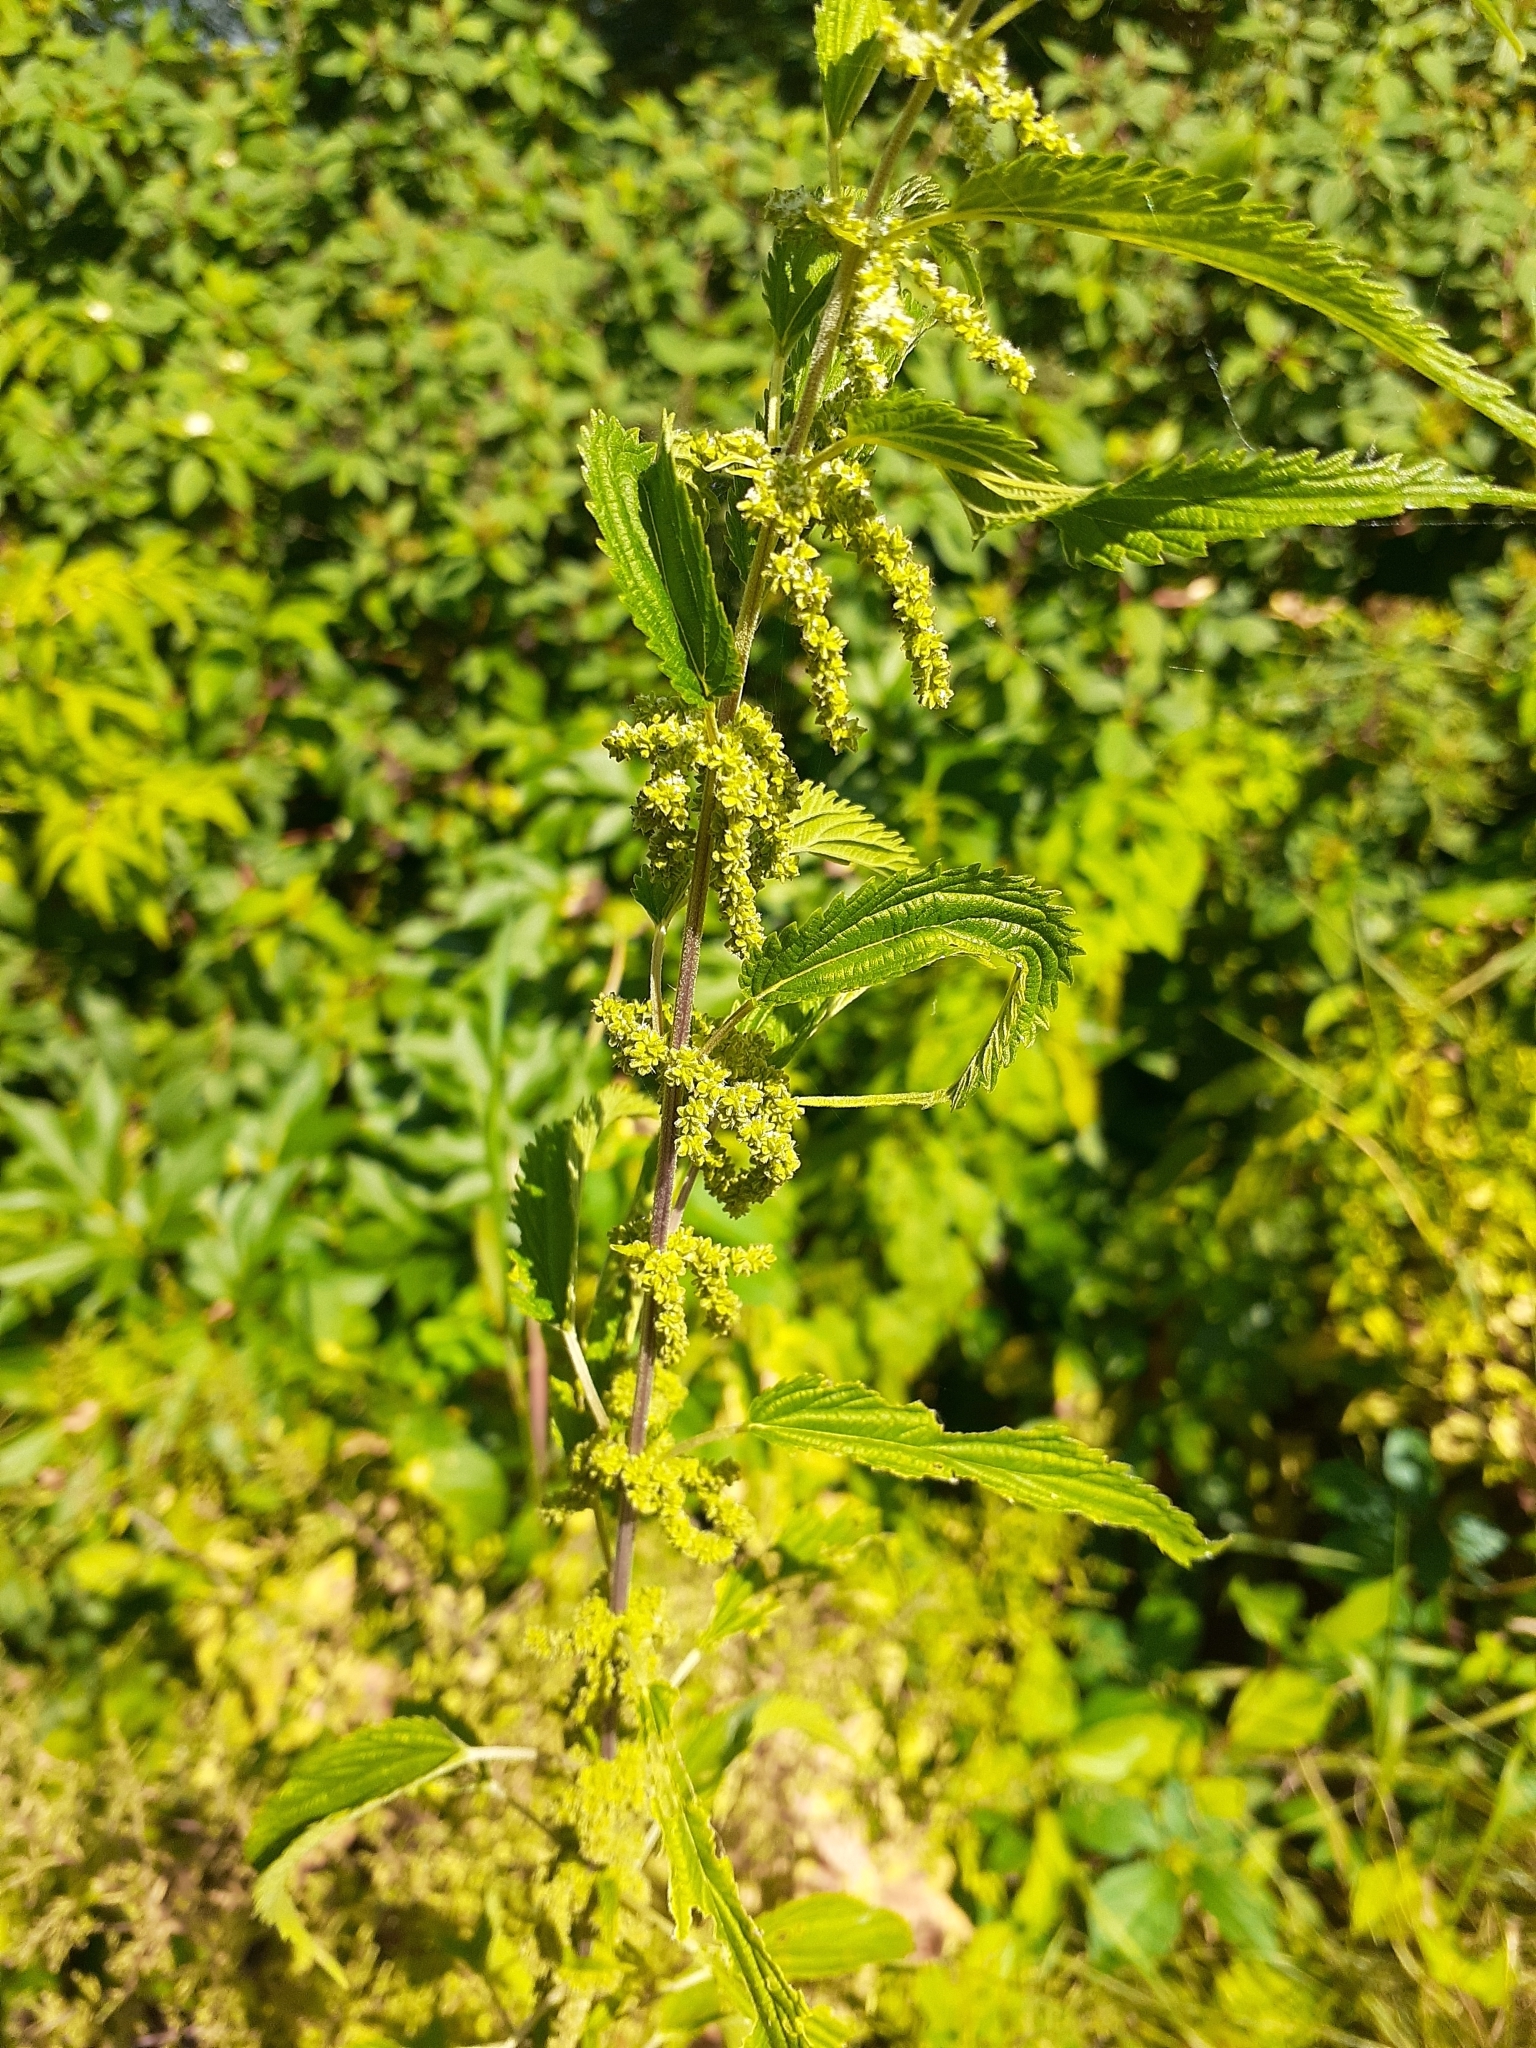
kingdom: Plantae
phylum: Tracheophyta
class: Magnoliopsida
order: Rosales
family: Urticaceae
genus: Urtica
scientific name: Urtica dioica
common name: Common nettle
